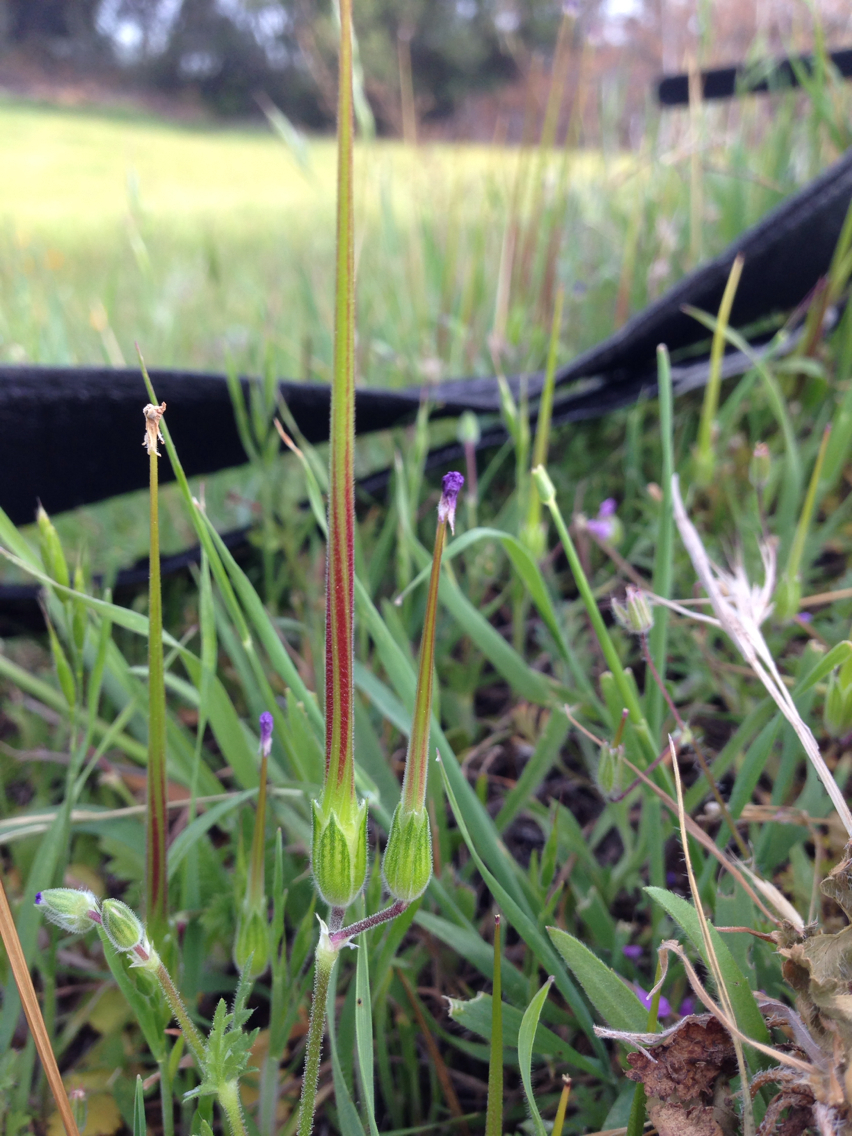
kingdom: Plantae
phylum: Tracheophyta
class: Magnoliopsida
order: Geraniales
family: Geraniaceae
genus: Erodium
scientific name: Erodium botrys
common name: Mediterranean stork's-bill
